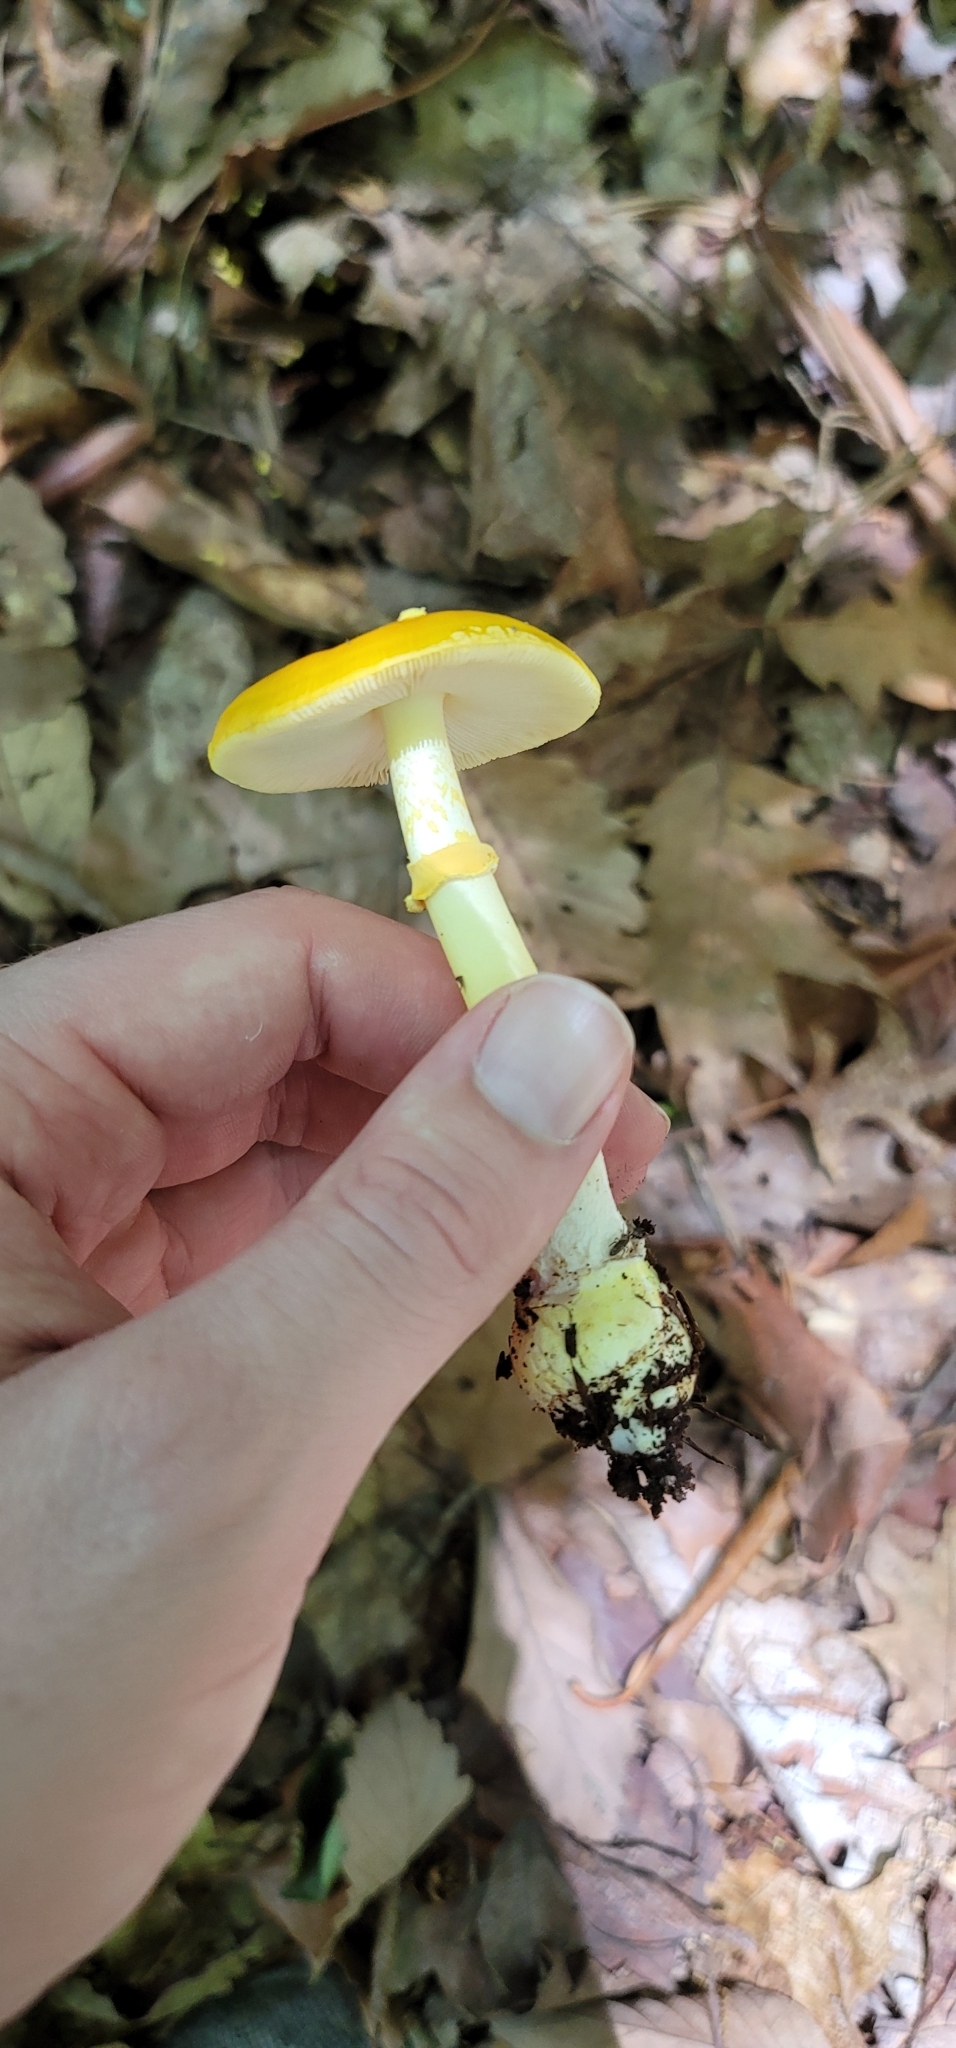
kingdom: Fungi
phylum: Basidiomycota
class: Agaricomycetes
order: Agaricales
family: Amanitaceae
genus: Amanita
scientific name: Amanita elongata
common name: Peck's yellow dust amanita
